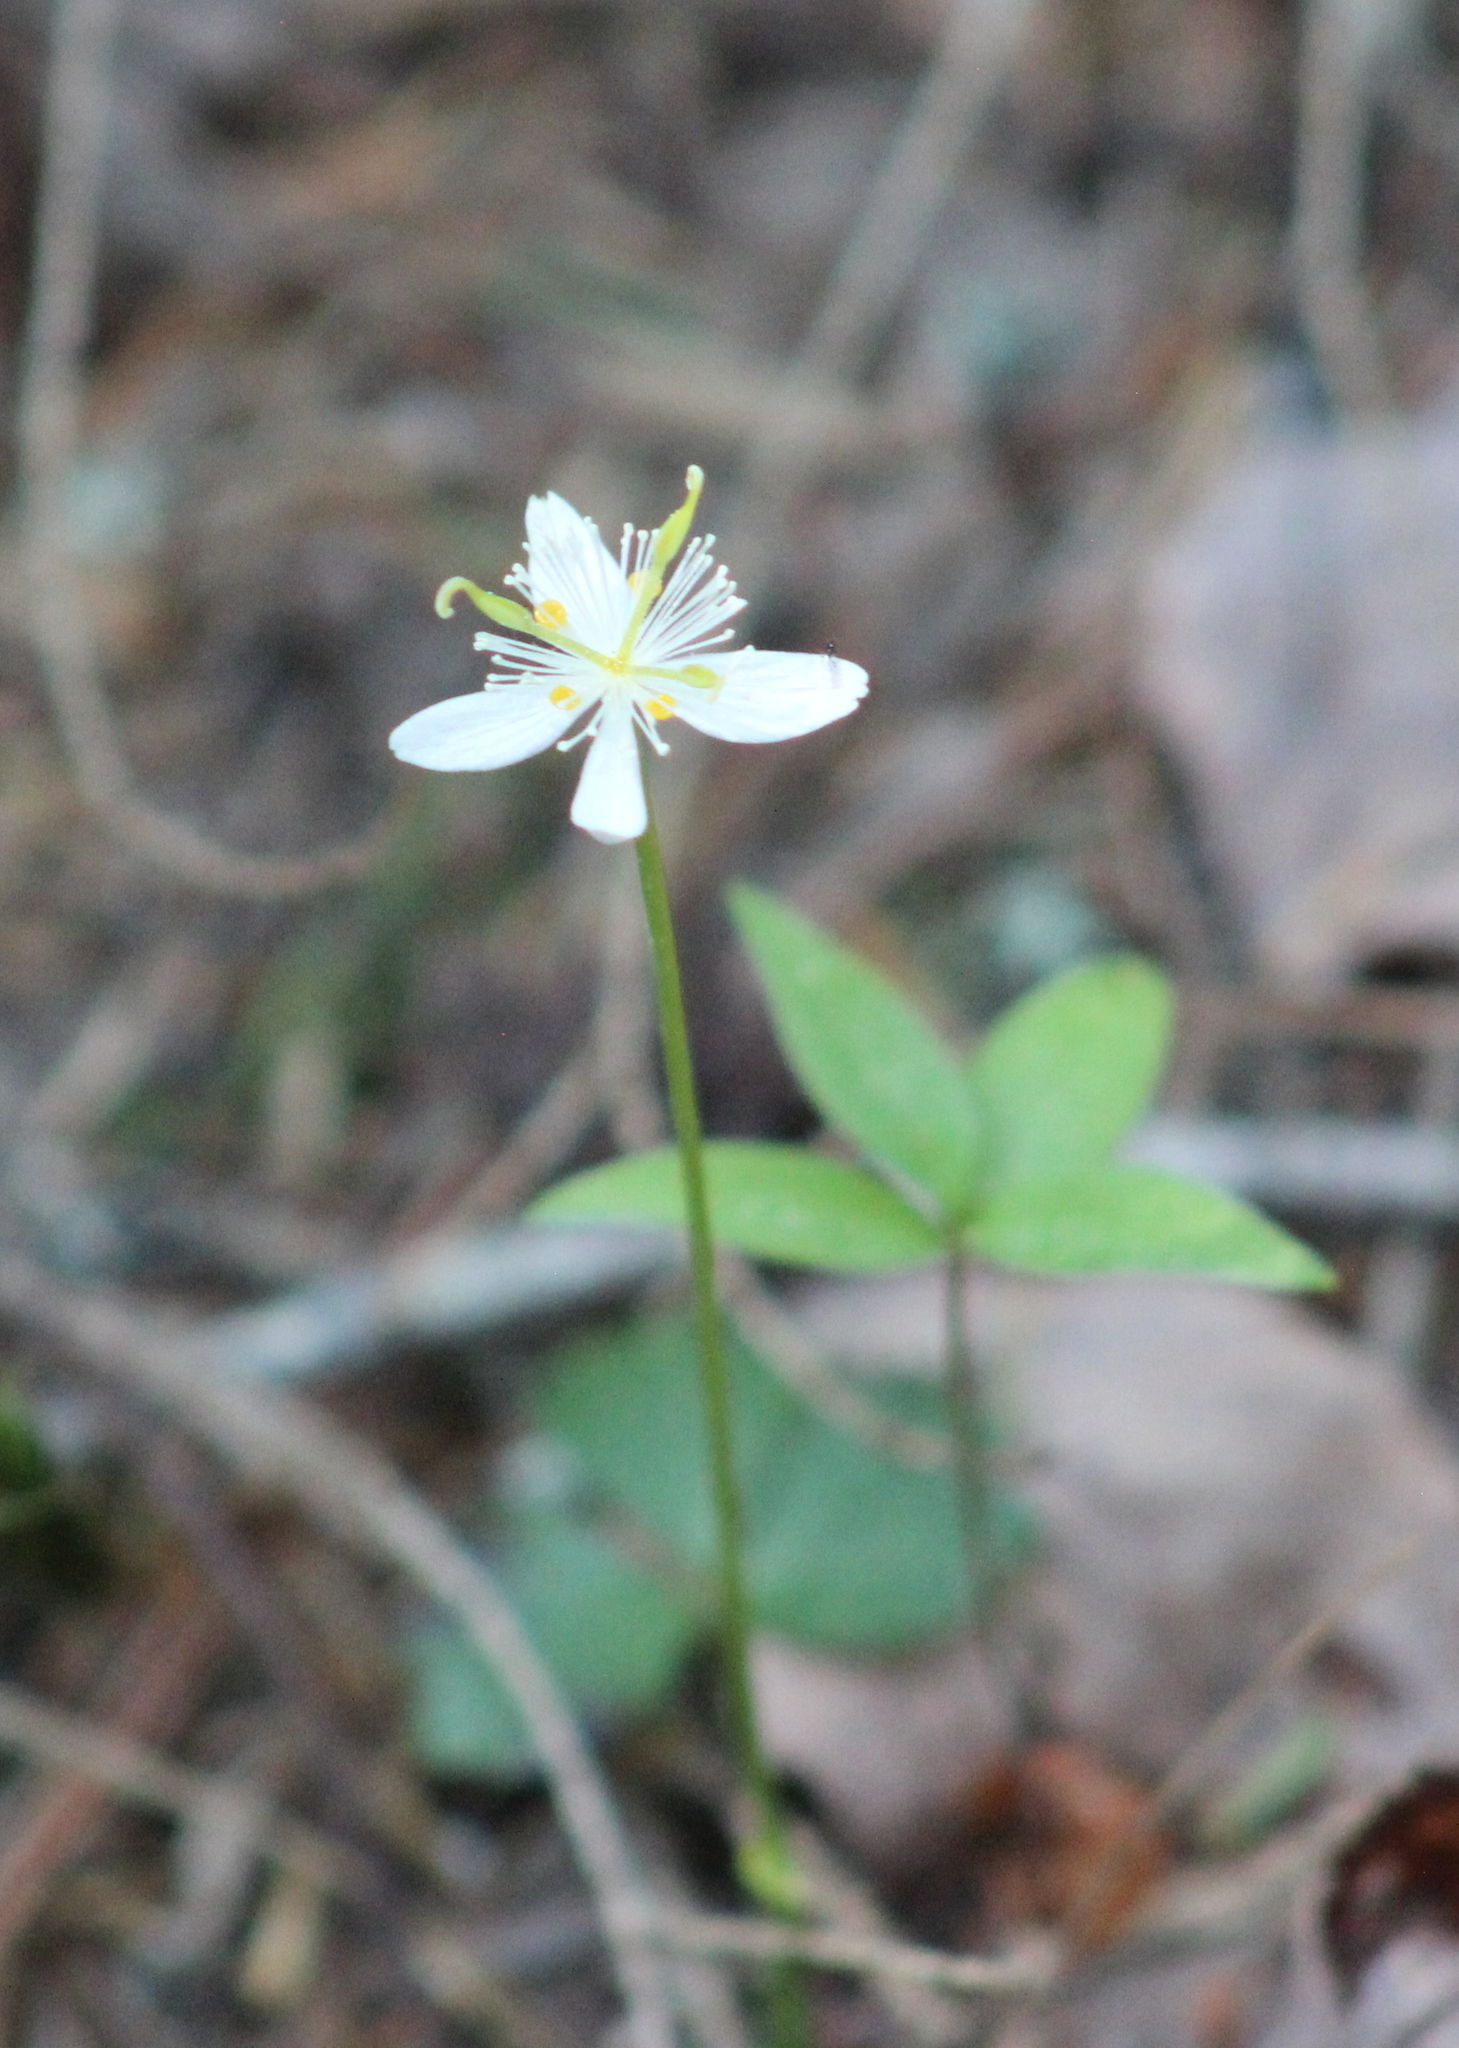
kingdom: Plantae
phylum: Tracheophyta
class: Magnoliopsida
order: Ranunculales
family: Ranunculaceae
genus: Coptis
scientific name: Coptis trifolia
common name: Canker-root
